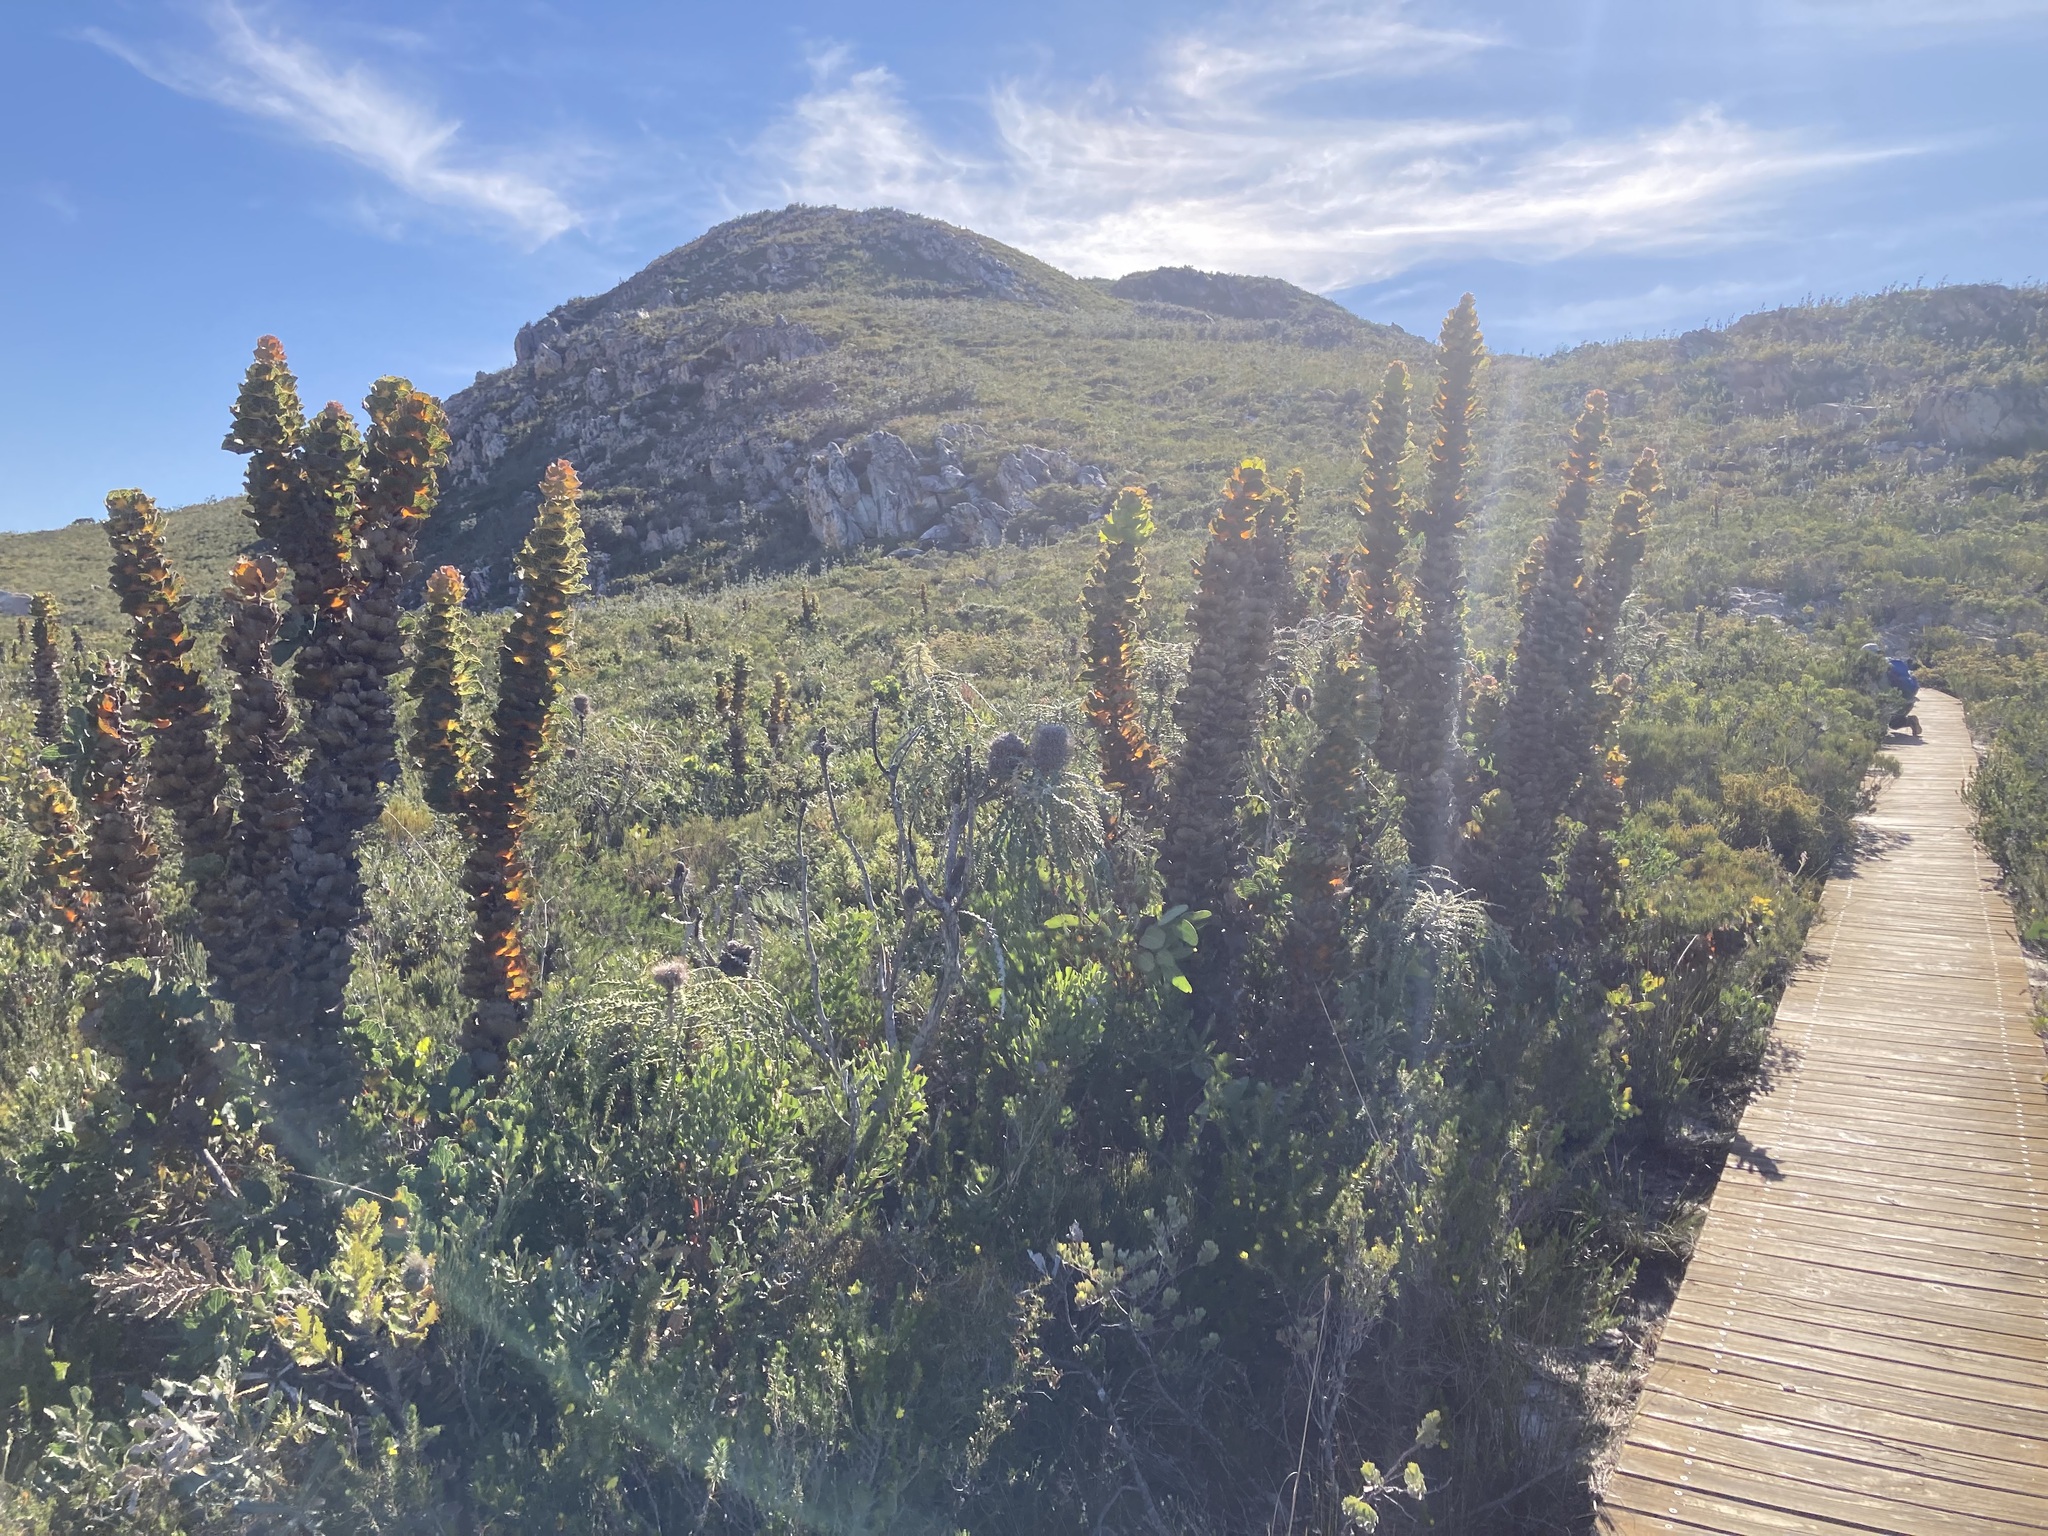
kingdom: Plantae
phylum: Tracheophyta
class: Magnoliopsida
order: Proteales
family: Proteaceae
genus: Hakea
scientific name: Hakea victoria
